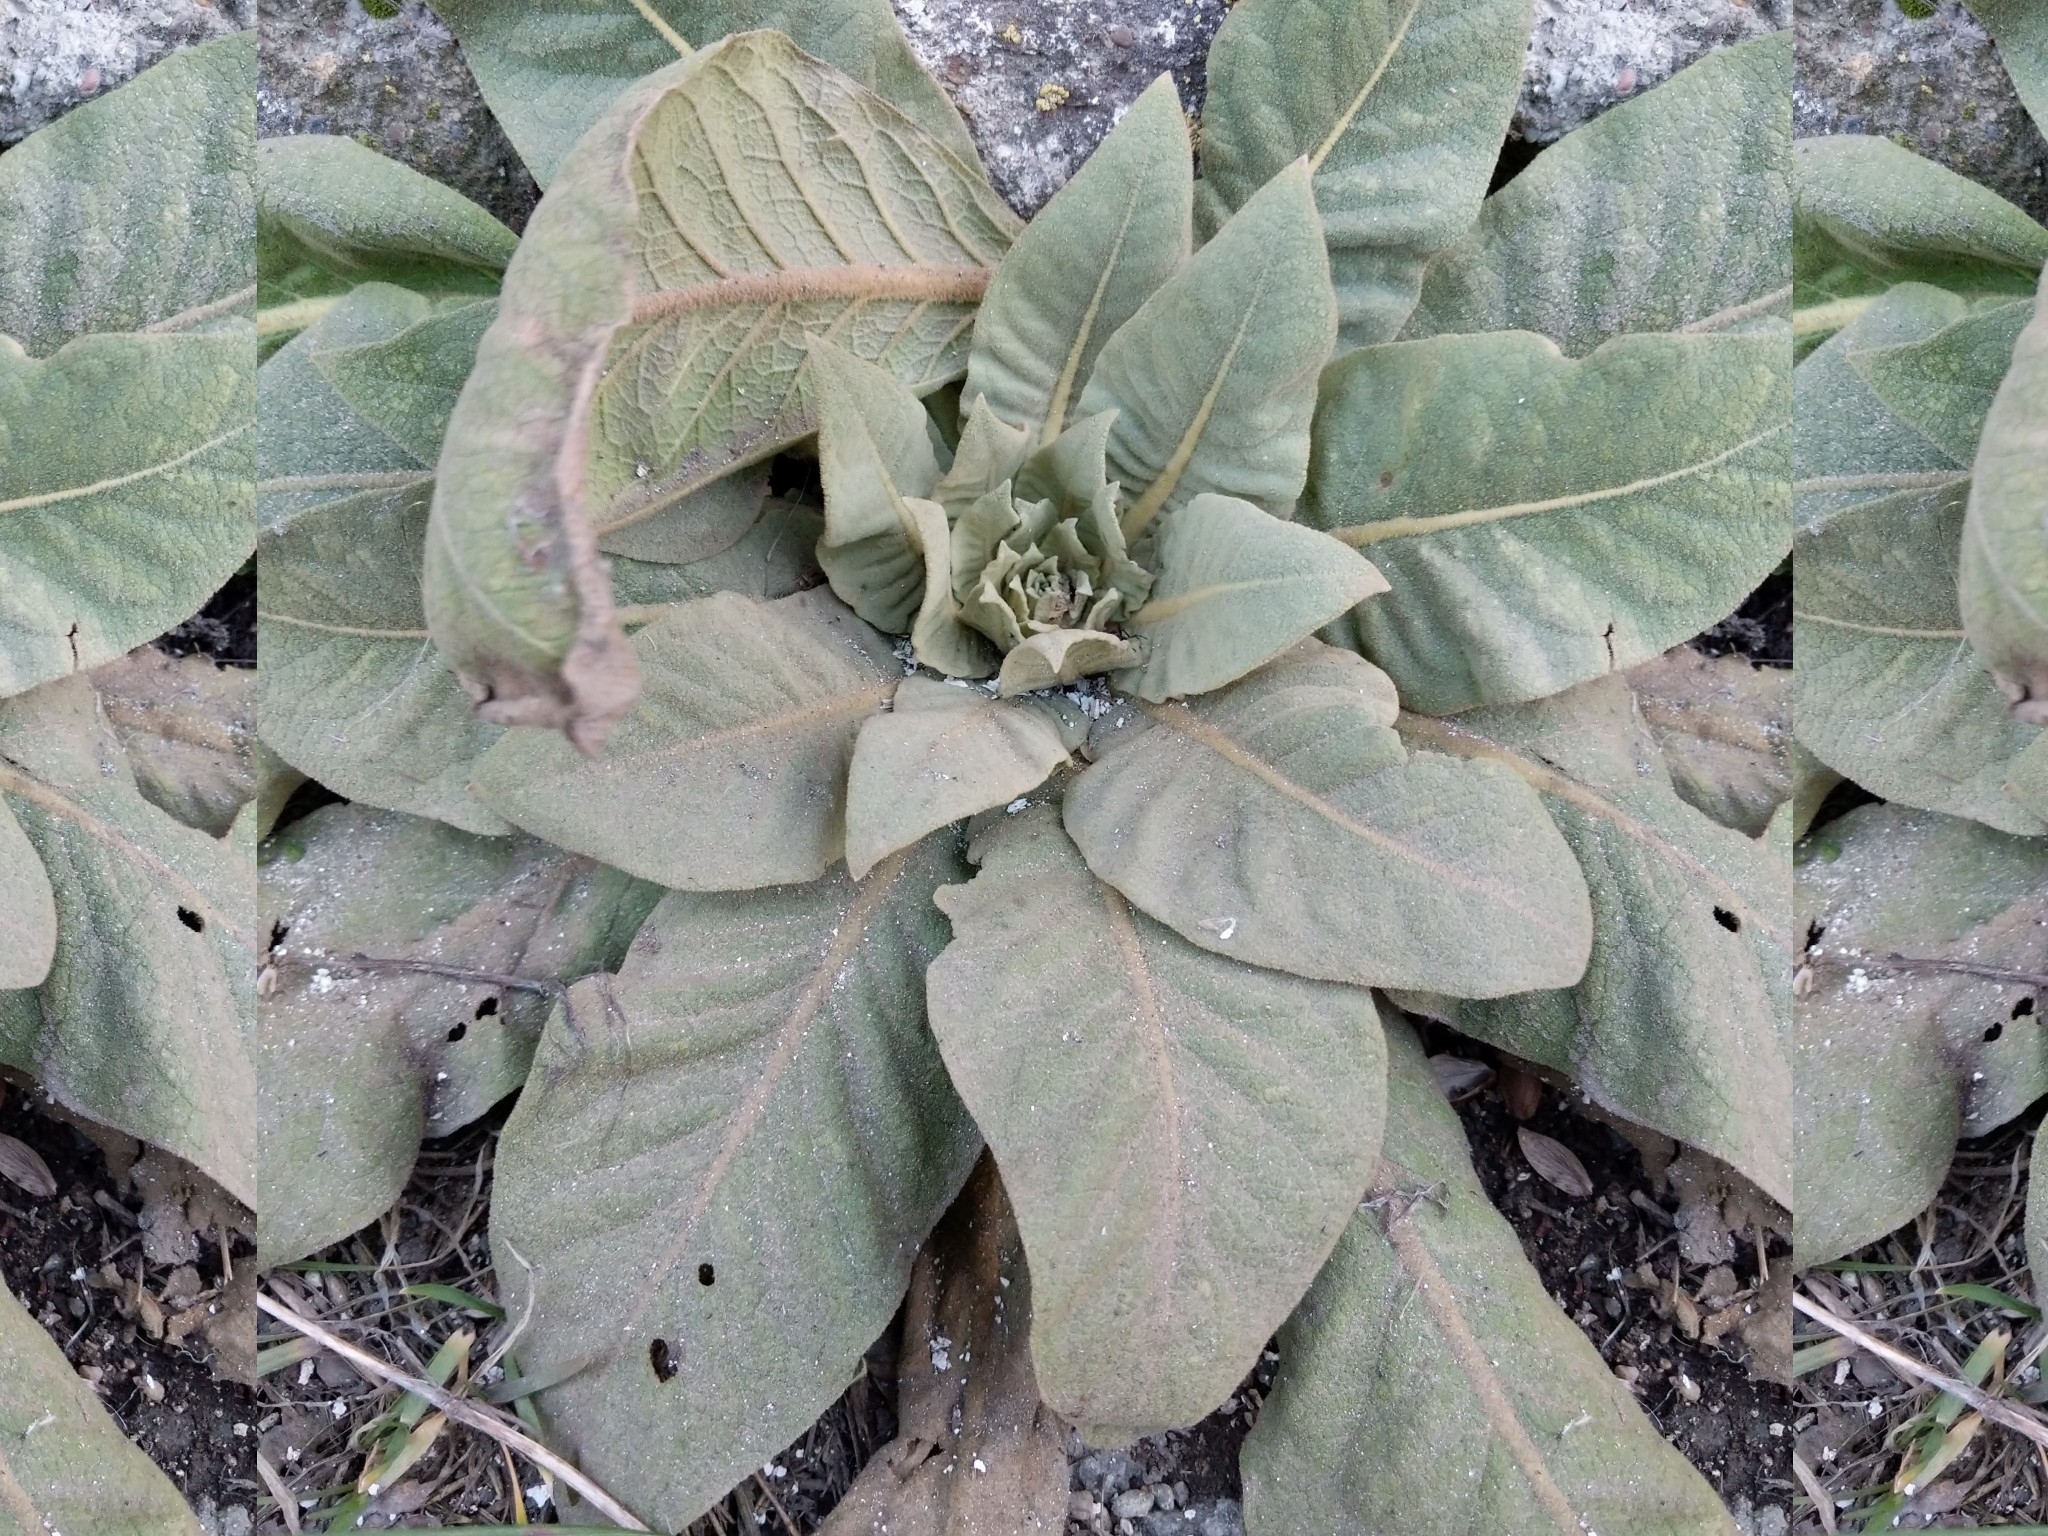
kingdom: Plantae
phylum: Tracheophyta
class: Magnoliopsida
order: Lamiales
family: Scrophulariaceae
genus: Verbascum
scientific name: Verbascum thapsus
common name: Common mullein
